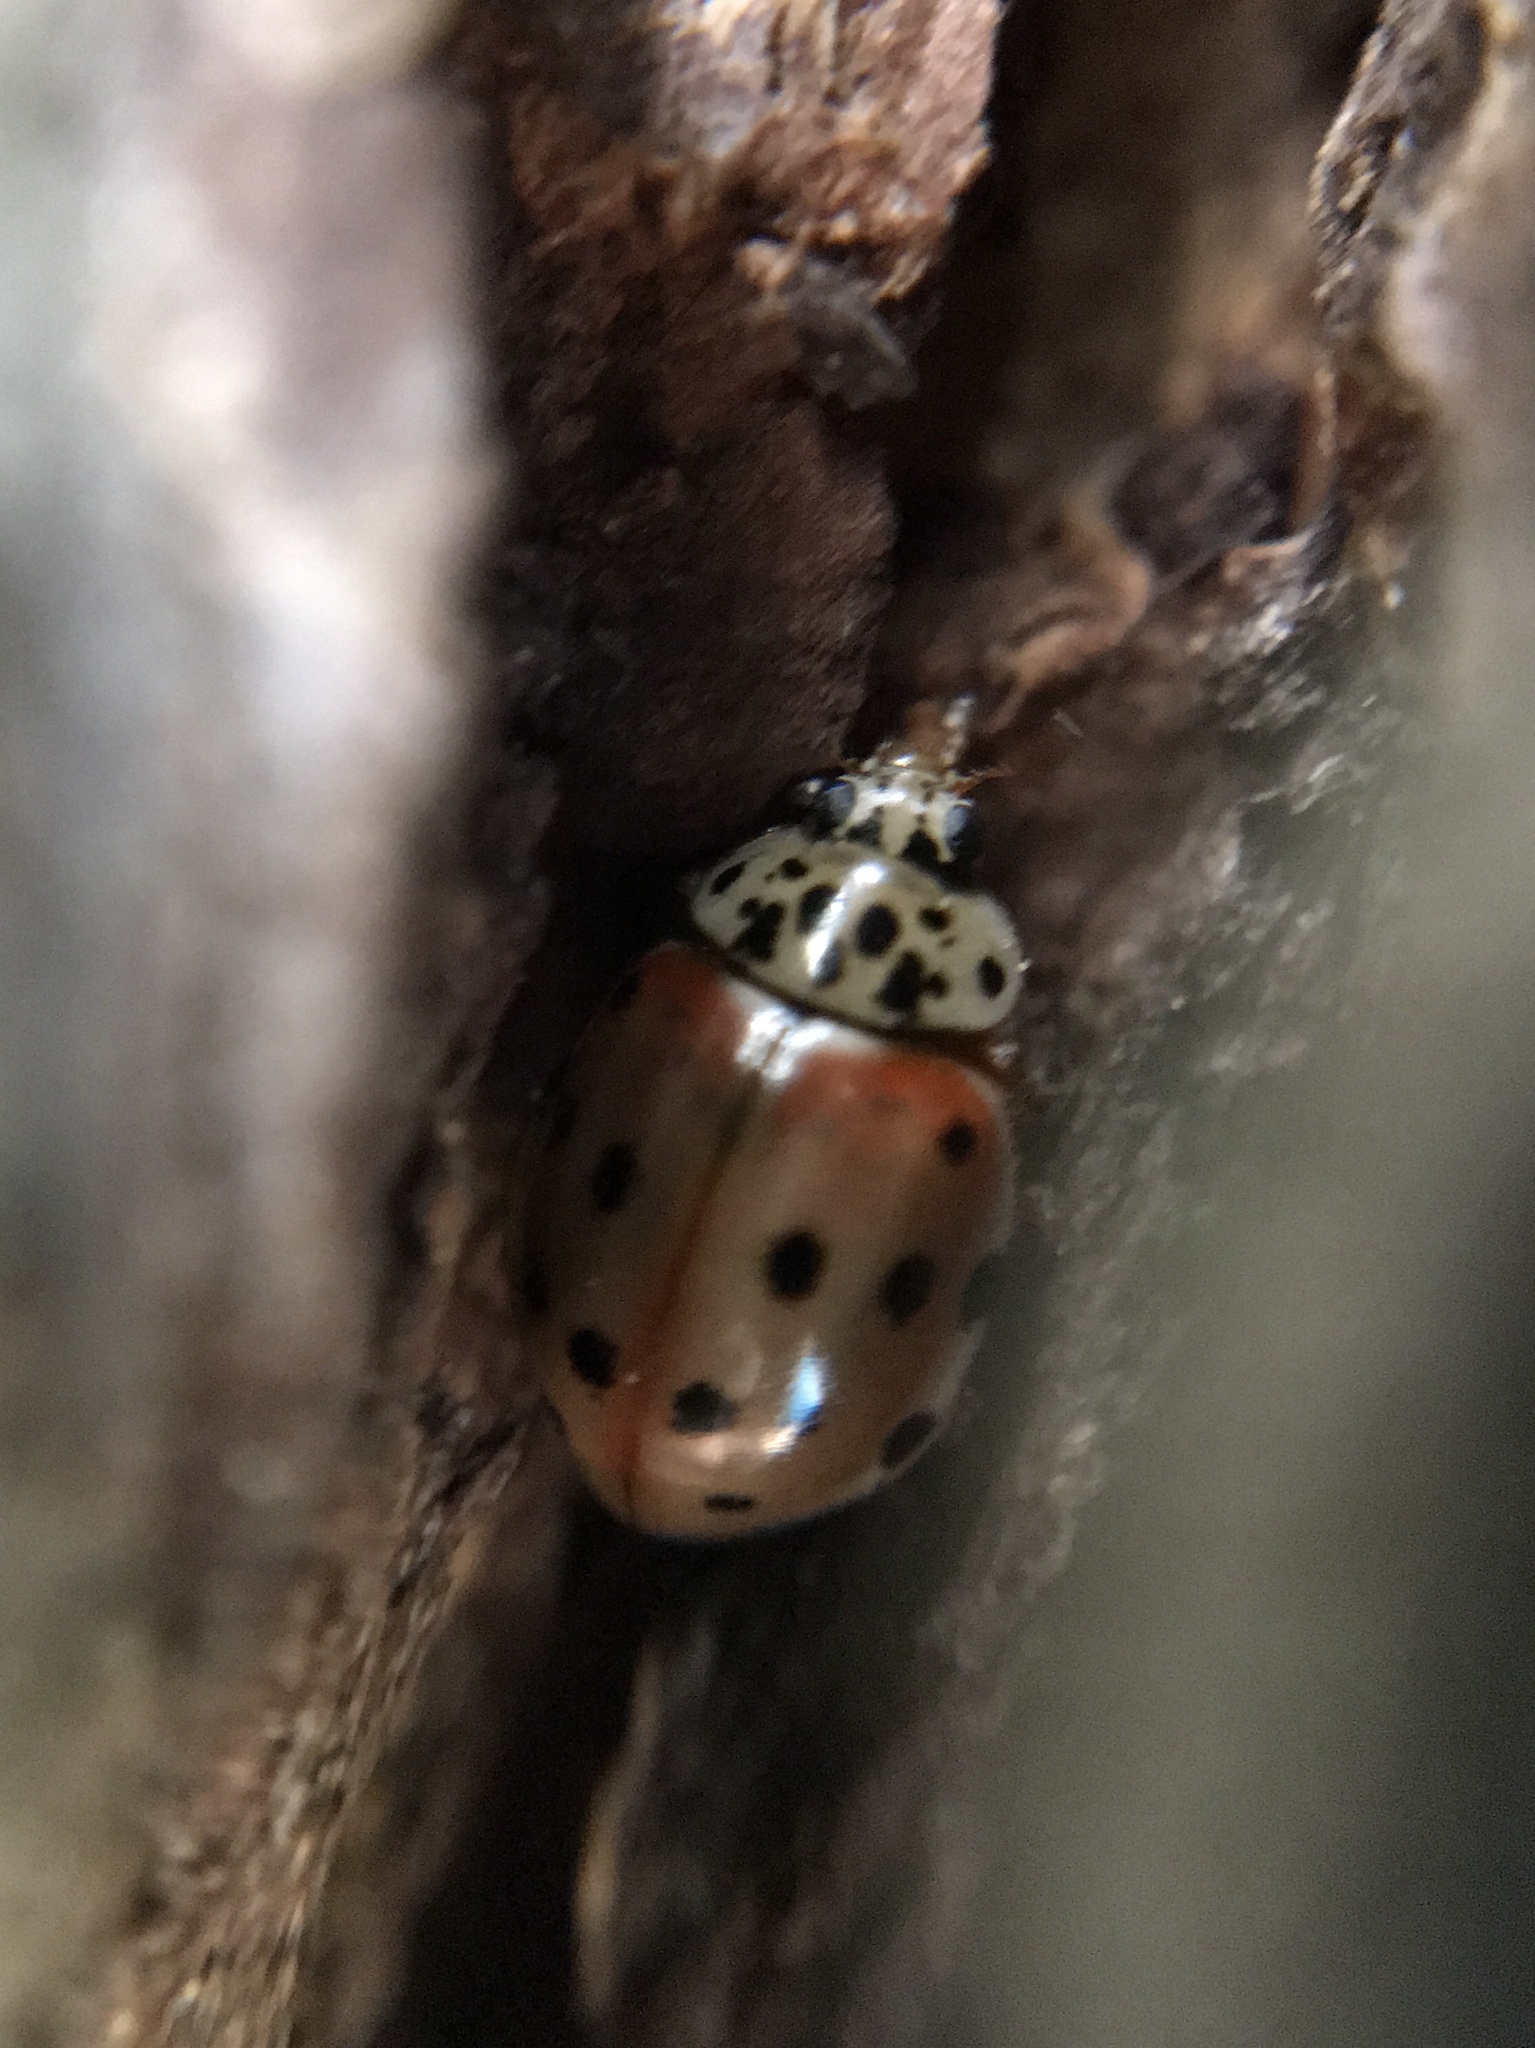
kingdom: Animalia
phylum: Arthropoda
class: Insecta
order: Coleoptera
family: Coccinellidae
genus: Harmonia
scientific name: Harmonia quadripunctata
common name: Cream-streaked ladybird
